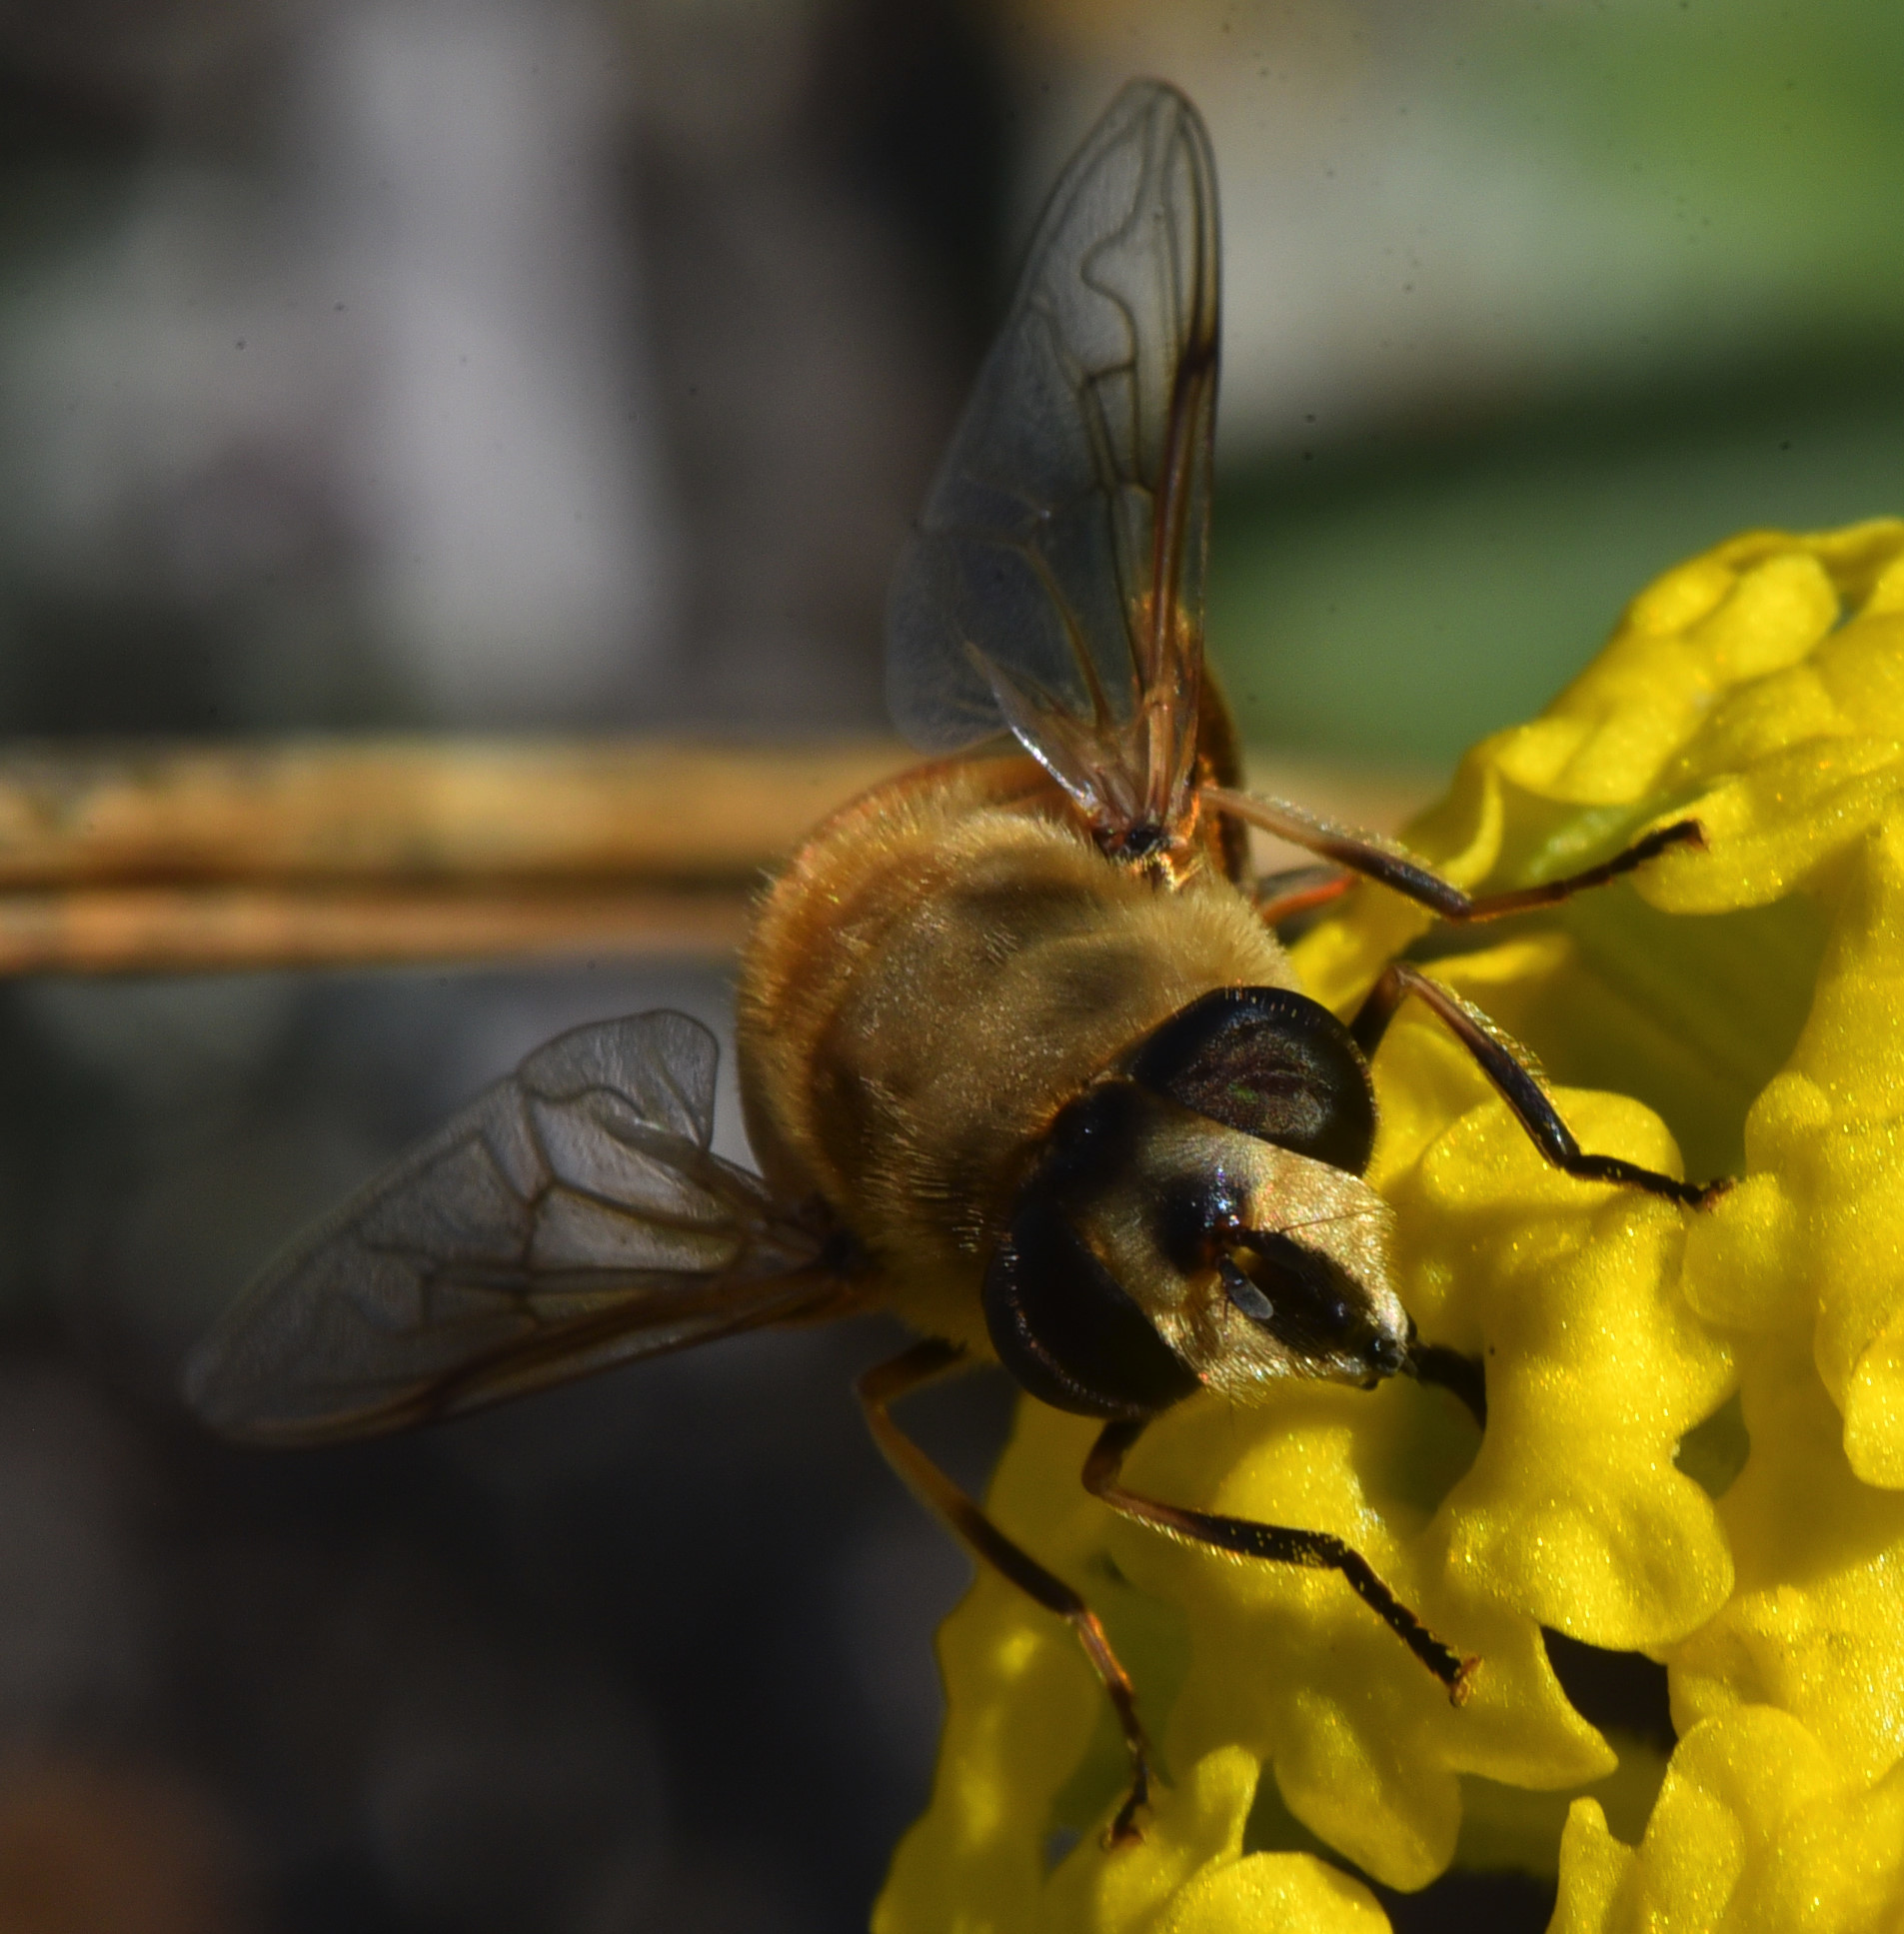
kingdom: Animalia
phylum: Arthropoda
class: Insecta
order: Diptera
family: Syrphidae
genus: Eristalis
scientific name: Eristalis tenax
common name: Drone fly
